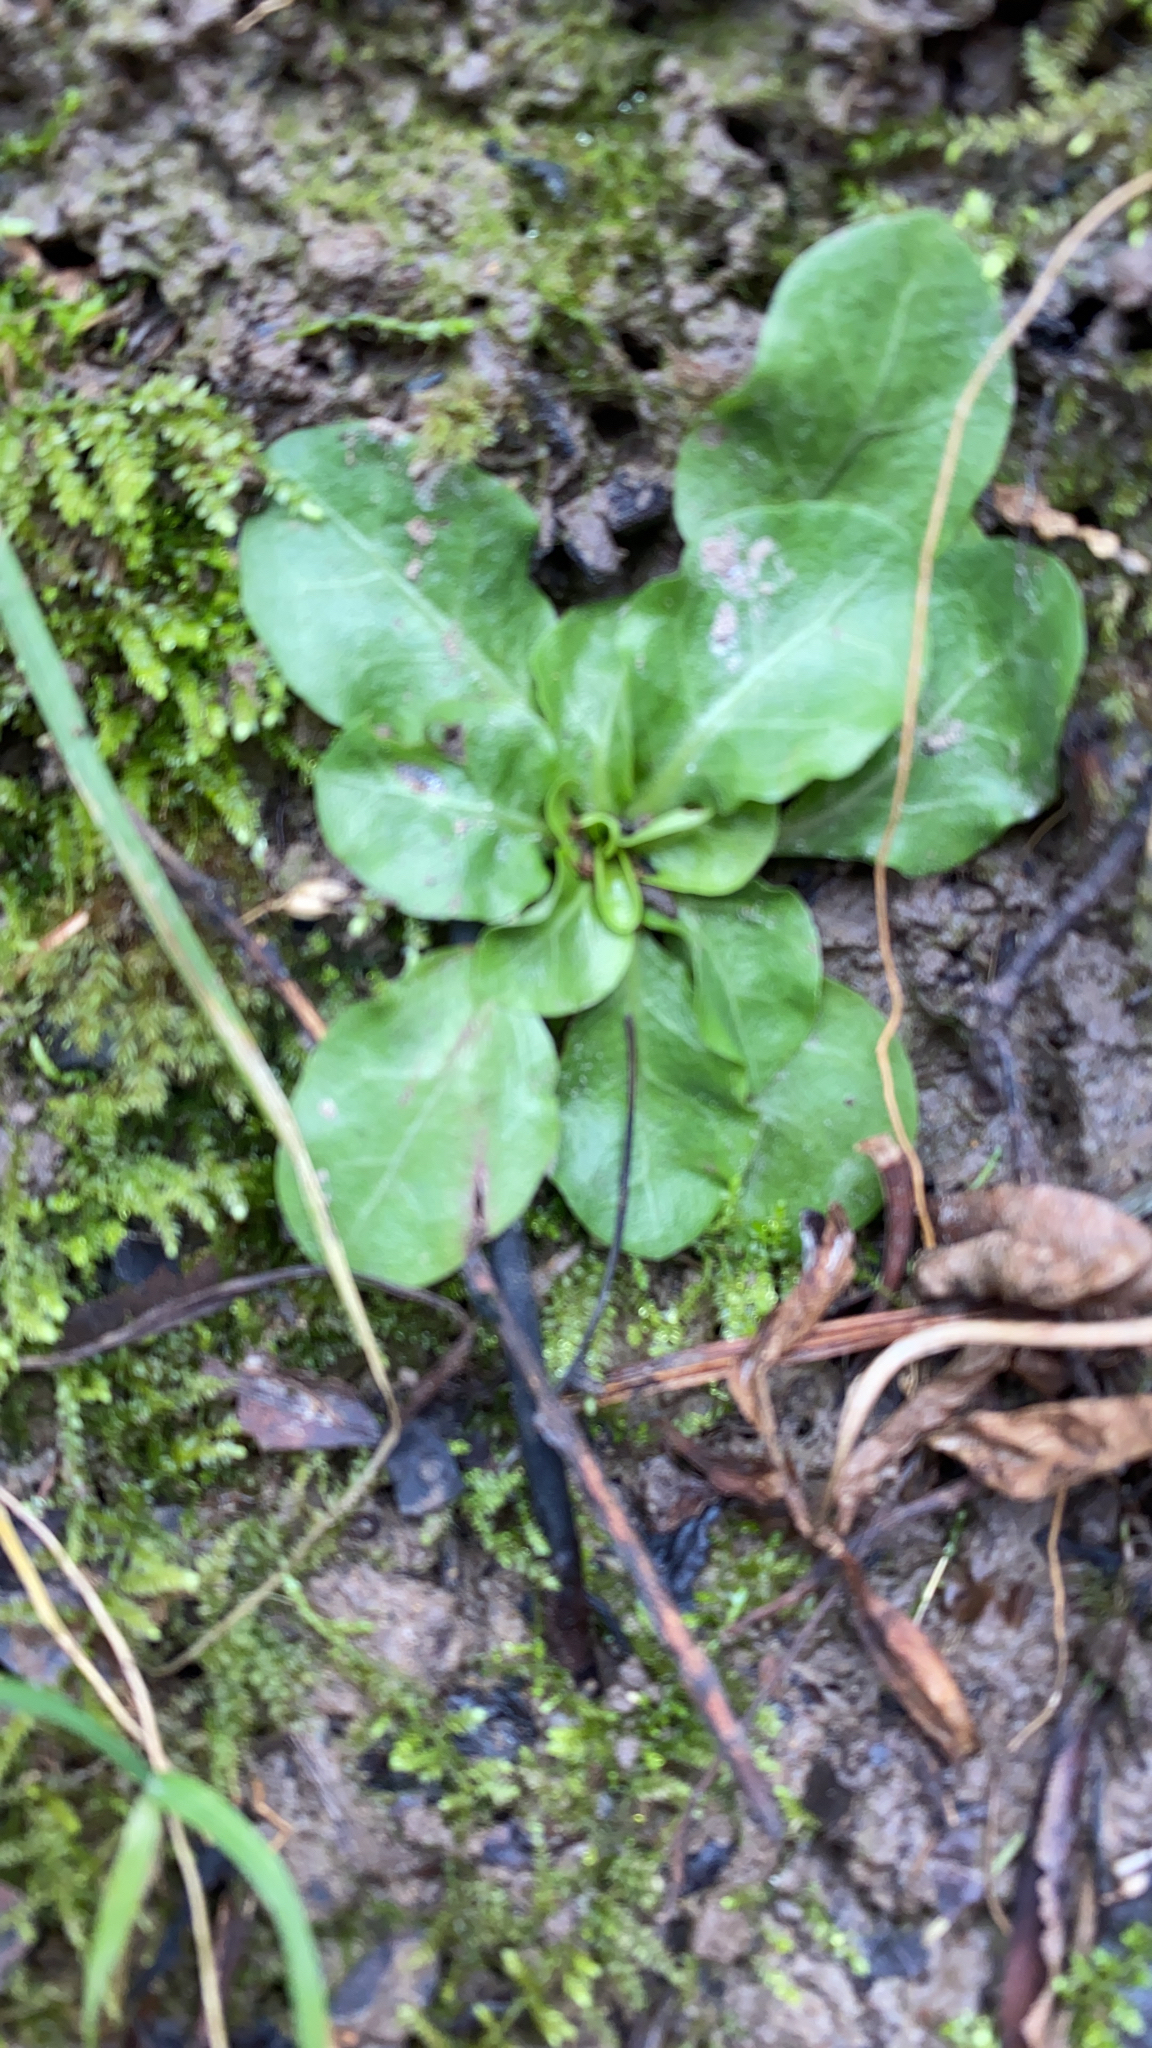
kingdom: Plantae
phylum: Tracheophyta
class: Magnoliopsida
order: Ericales
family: Primulaceae
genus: Samolus
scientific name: Samolus parviflorus
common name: False water pimpernel
